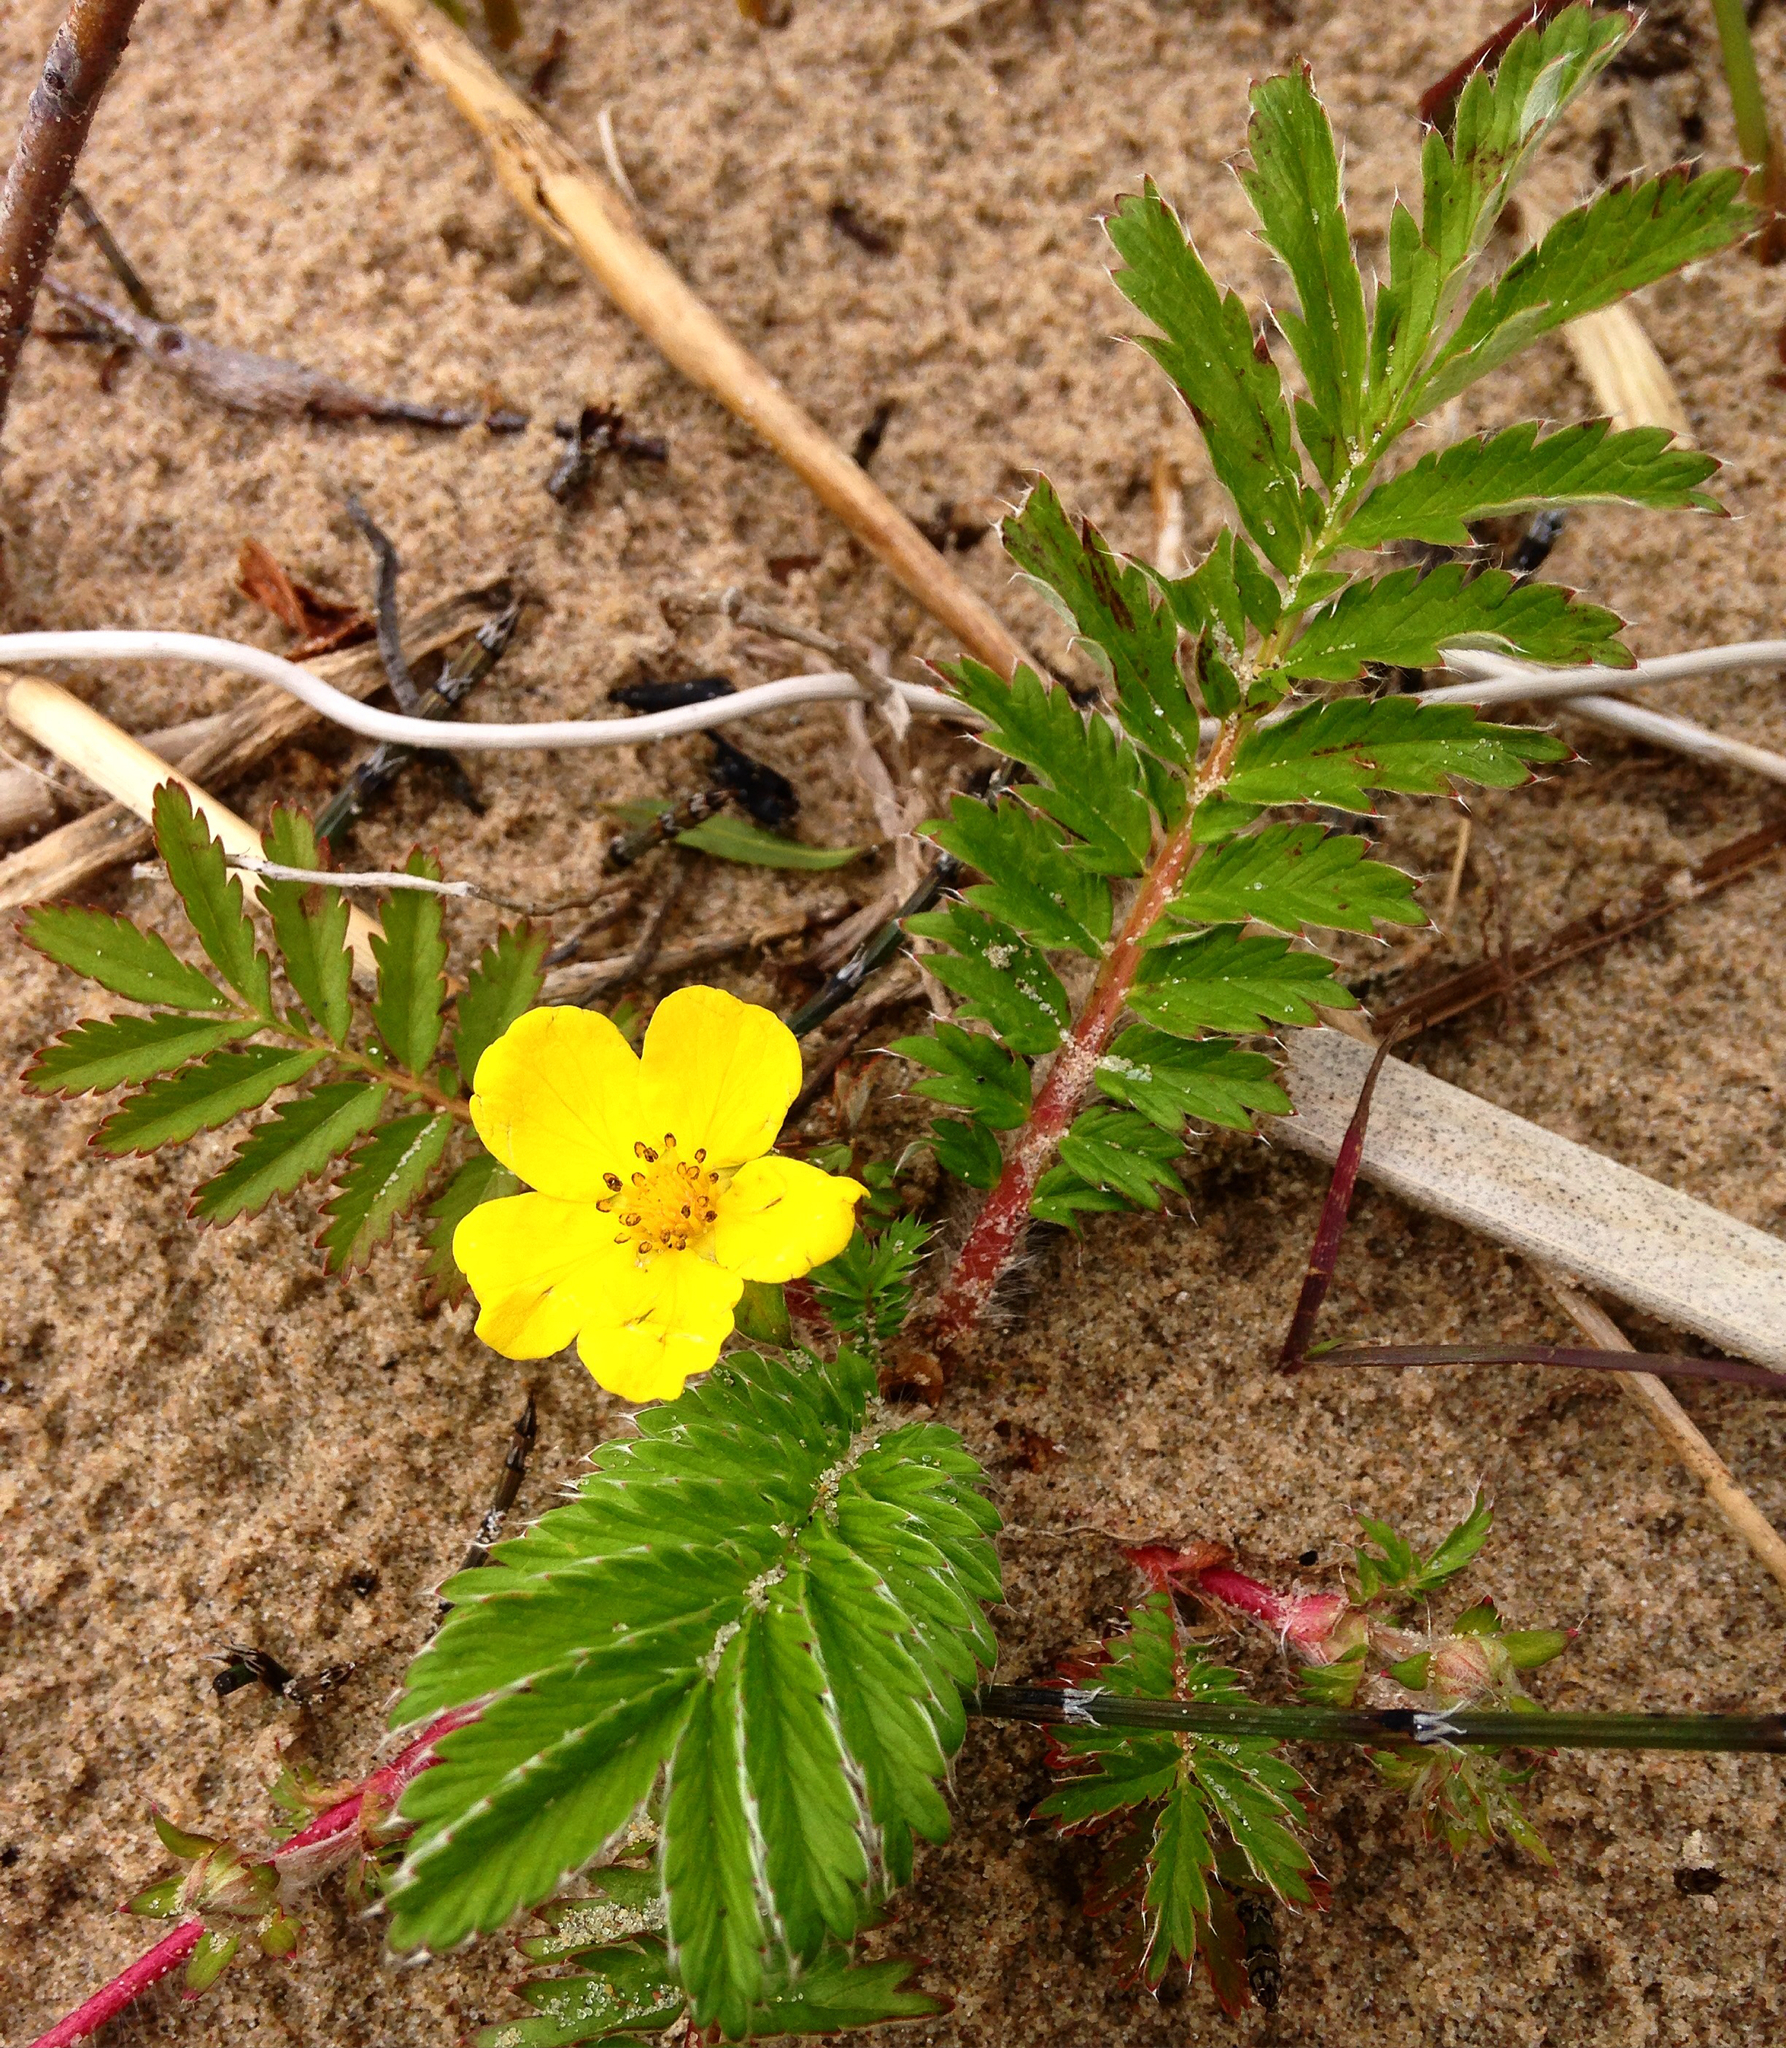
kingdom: Plantae
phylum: Tracheophyta
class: Magnoliopsida
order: Rosales
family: Rosaceae
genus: Argentina
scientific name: Argentina anserina
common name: Common silverweed
